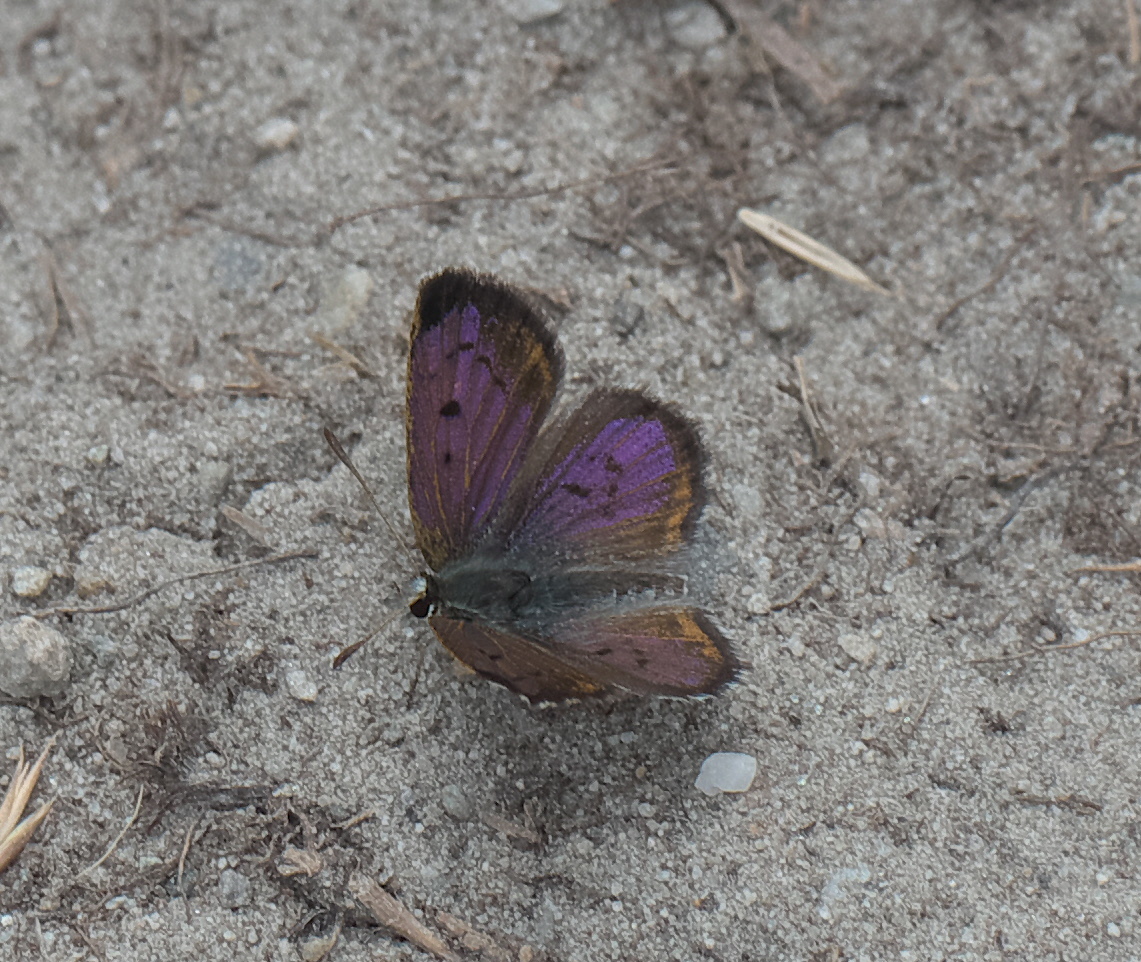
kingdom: Animalia
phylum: Arthropoda
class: Insecta
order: Lepidoptera
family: Lycaenidae
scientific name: Lycaenidae
